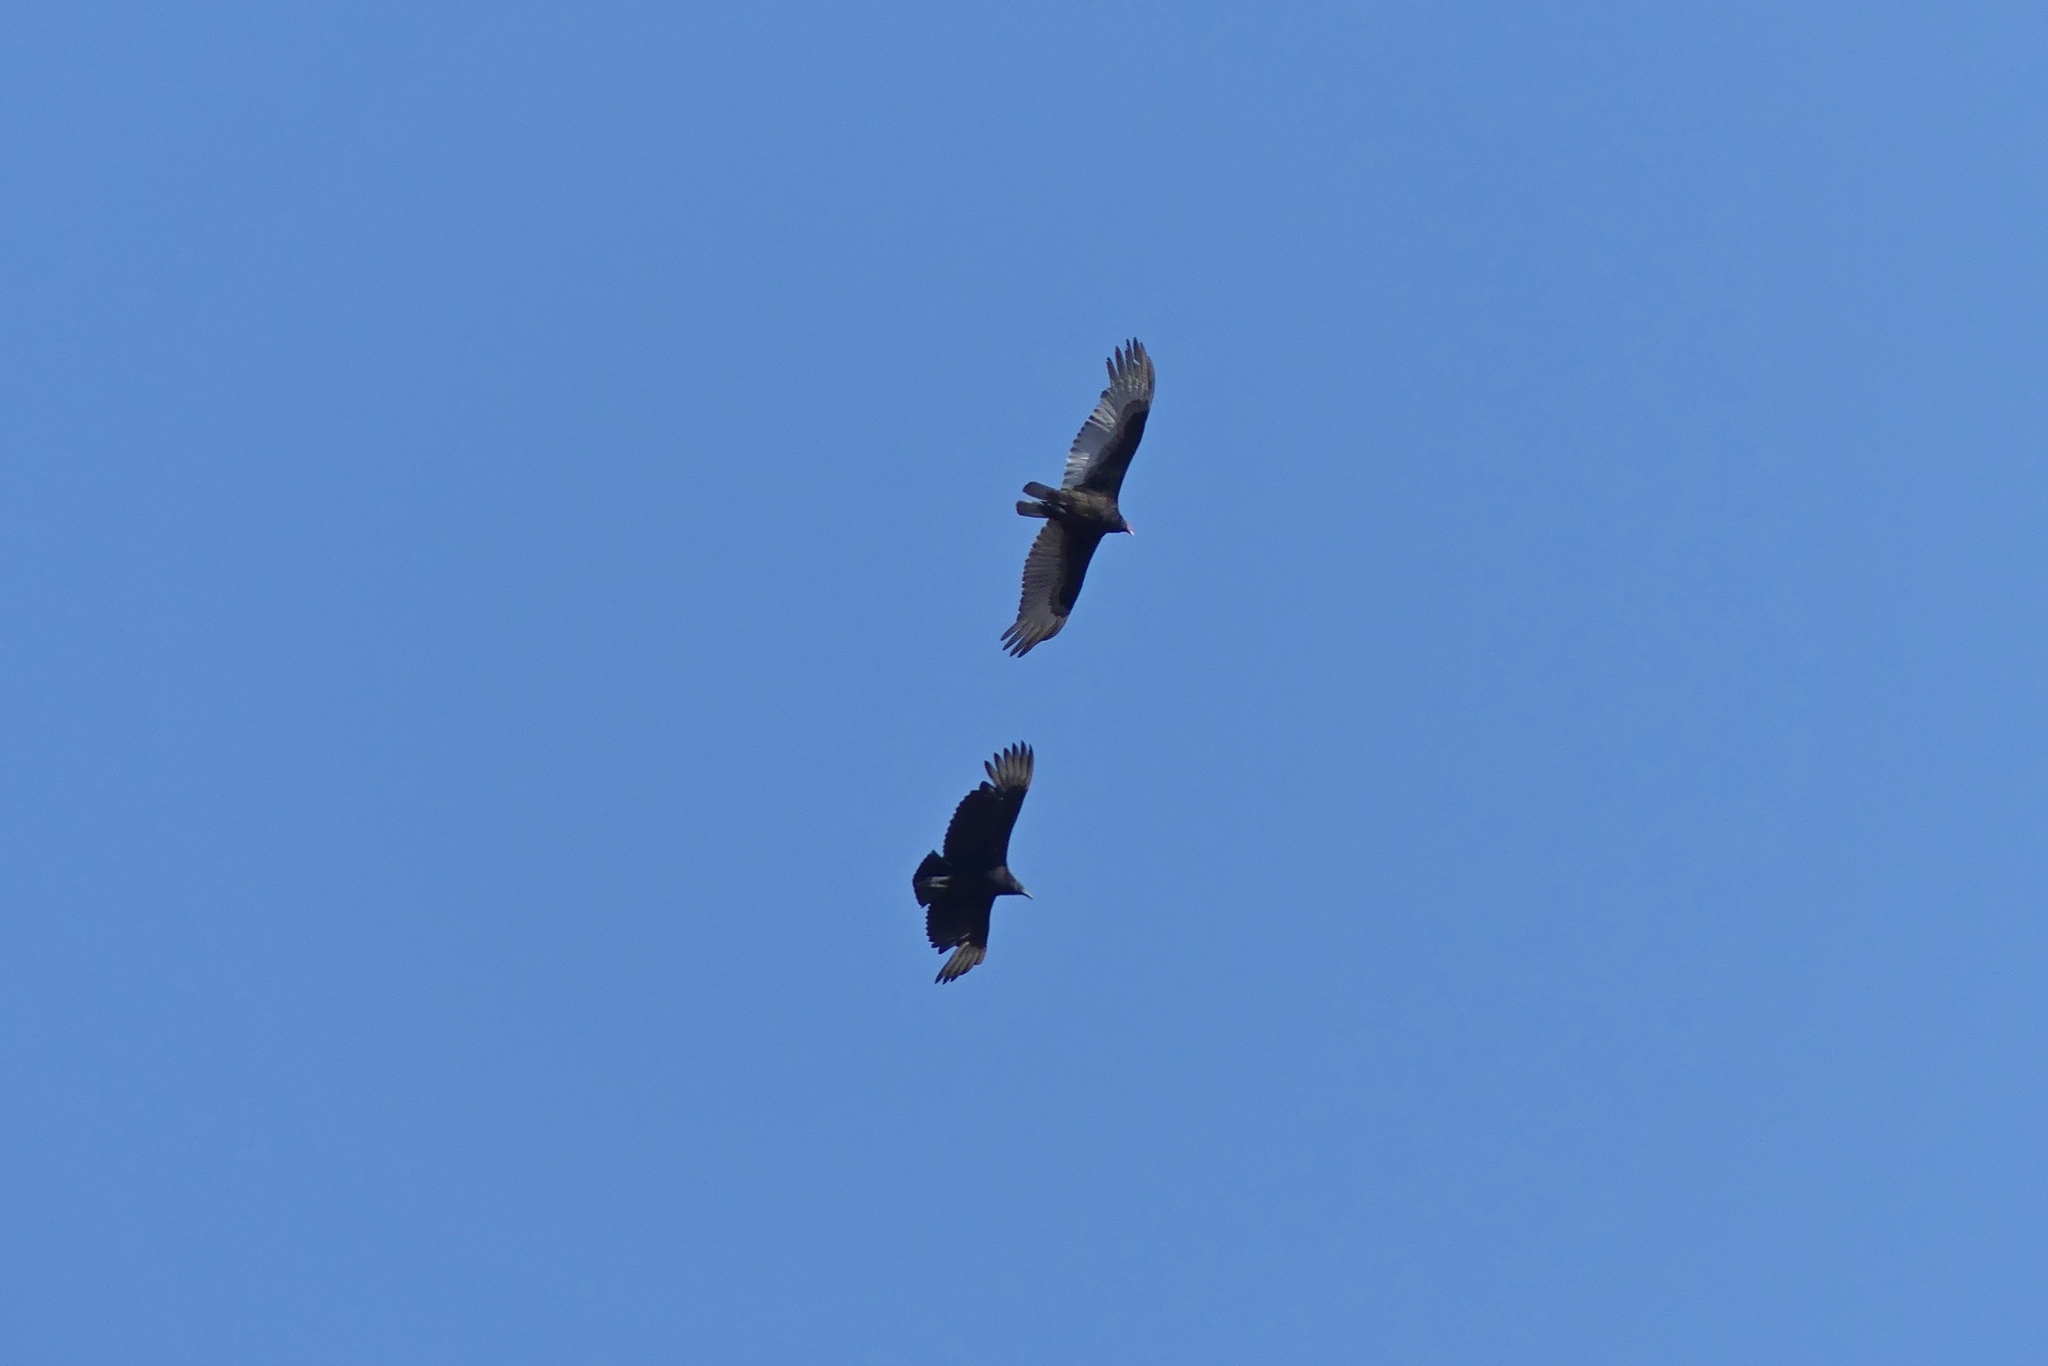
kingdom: Animalia
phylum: Chordata
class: Aves
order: Accipitriformes
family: Cathartidae
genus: Cathartes
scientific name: Cathartes aura
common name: Turkey vulture
